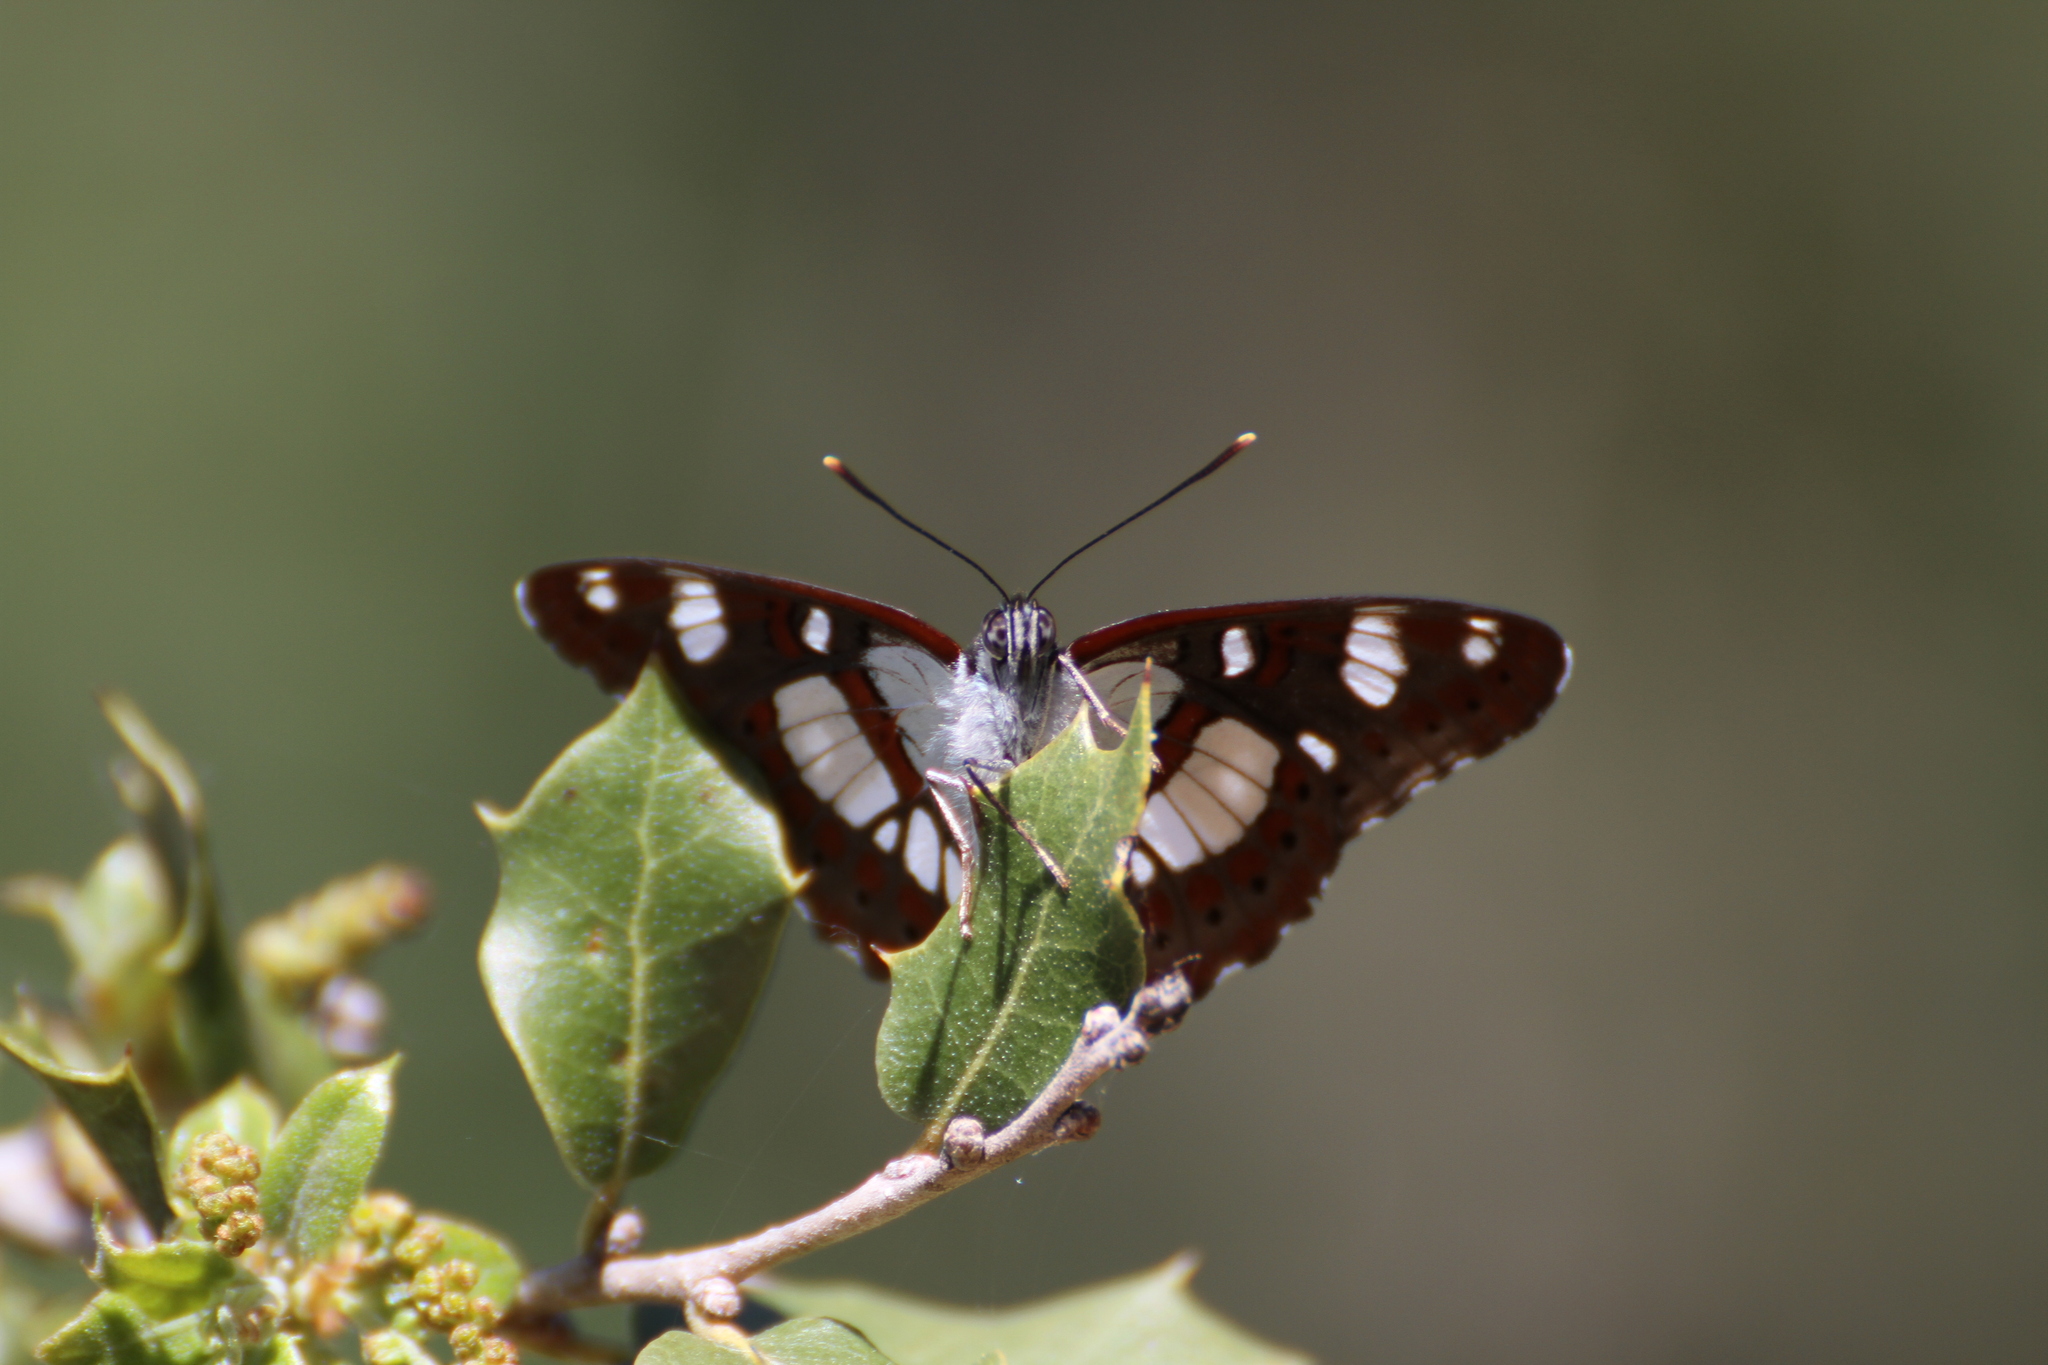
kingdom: Animalia
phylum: Arthropoda
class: Insecta
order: Lepidoptera
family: Nymphalidae
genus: Limenitis
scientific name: Limenitis reducta
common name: Southern white admiral
